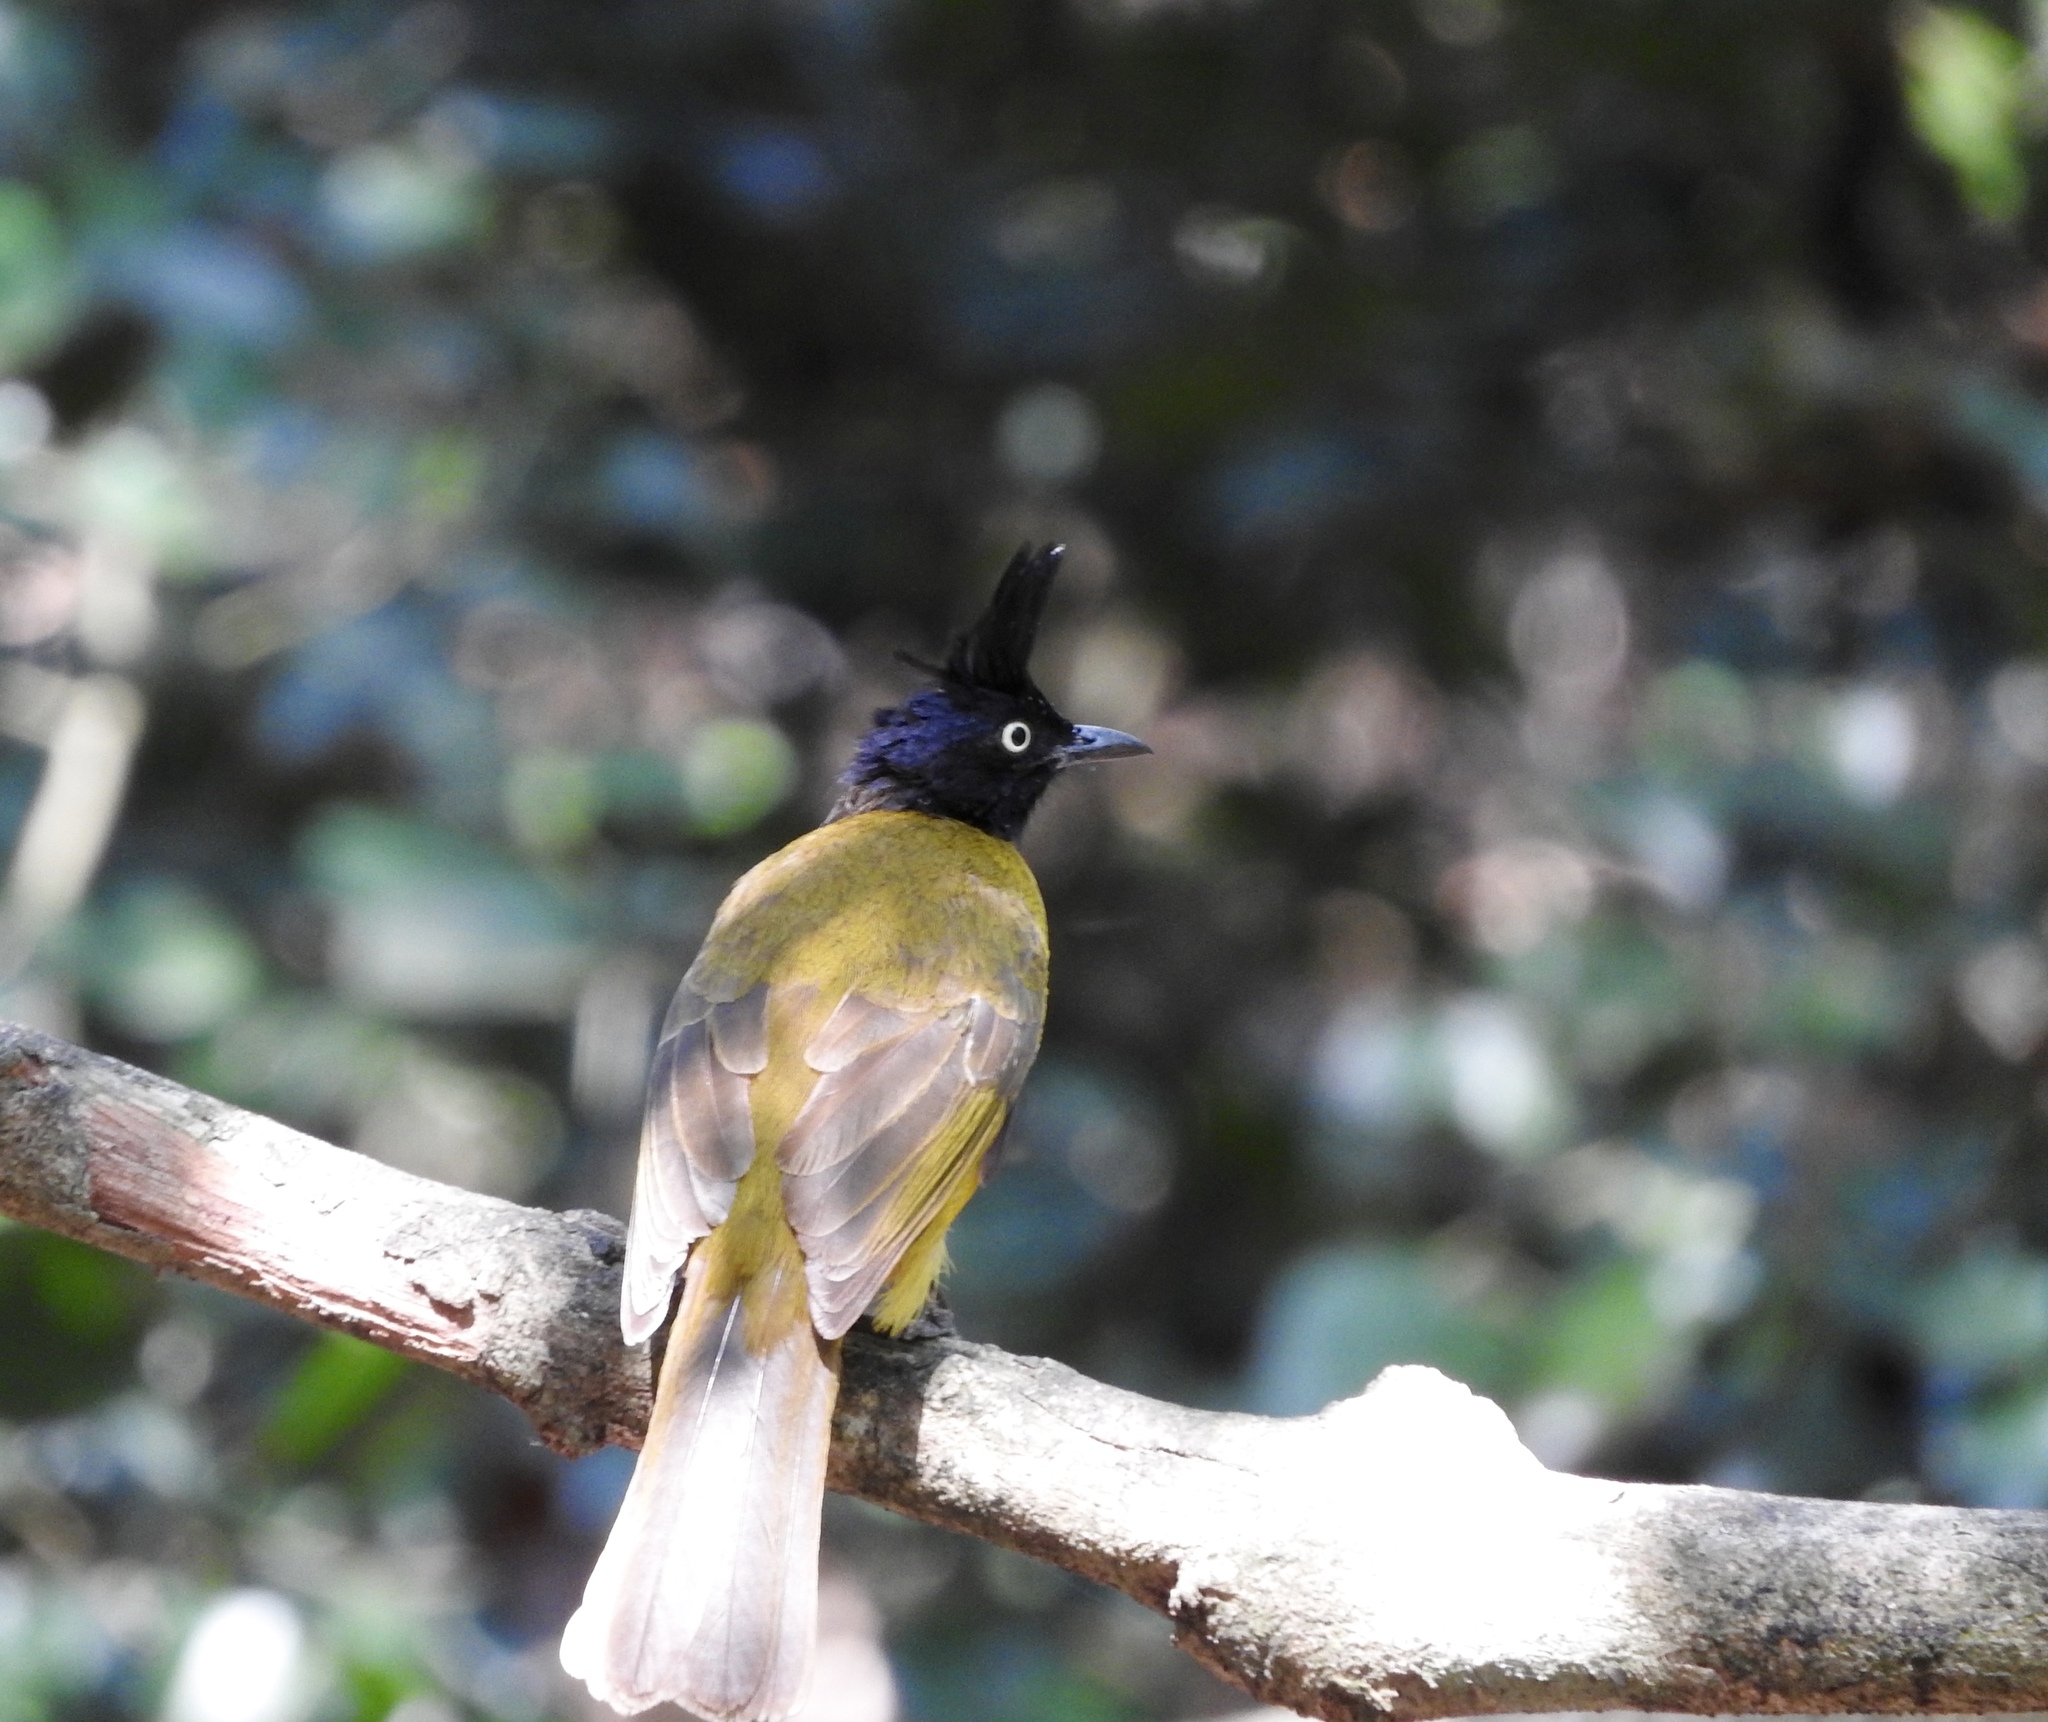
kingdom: Animalia
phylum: Chordata
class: Aves
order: Passeriformes
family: Pycnonotidae
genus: Pycnonotus
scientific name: Pycnonotus flaviventris
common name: Black-crested bulbul
